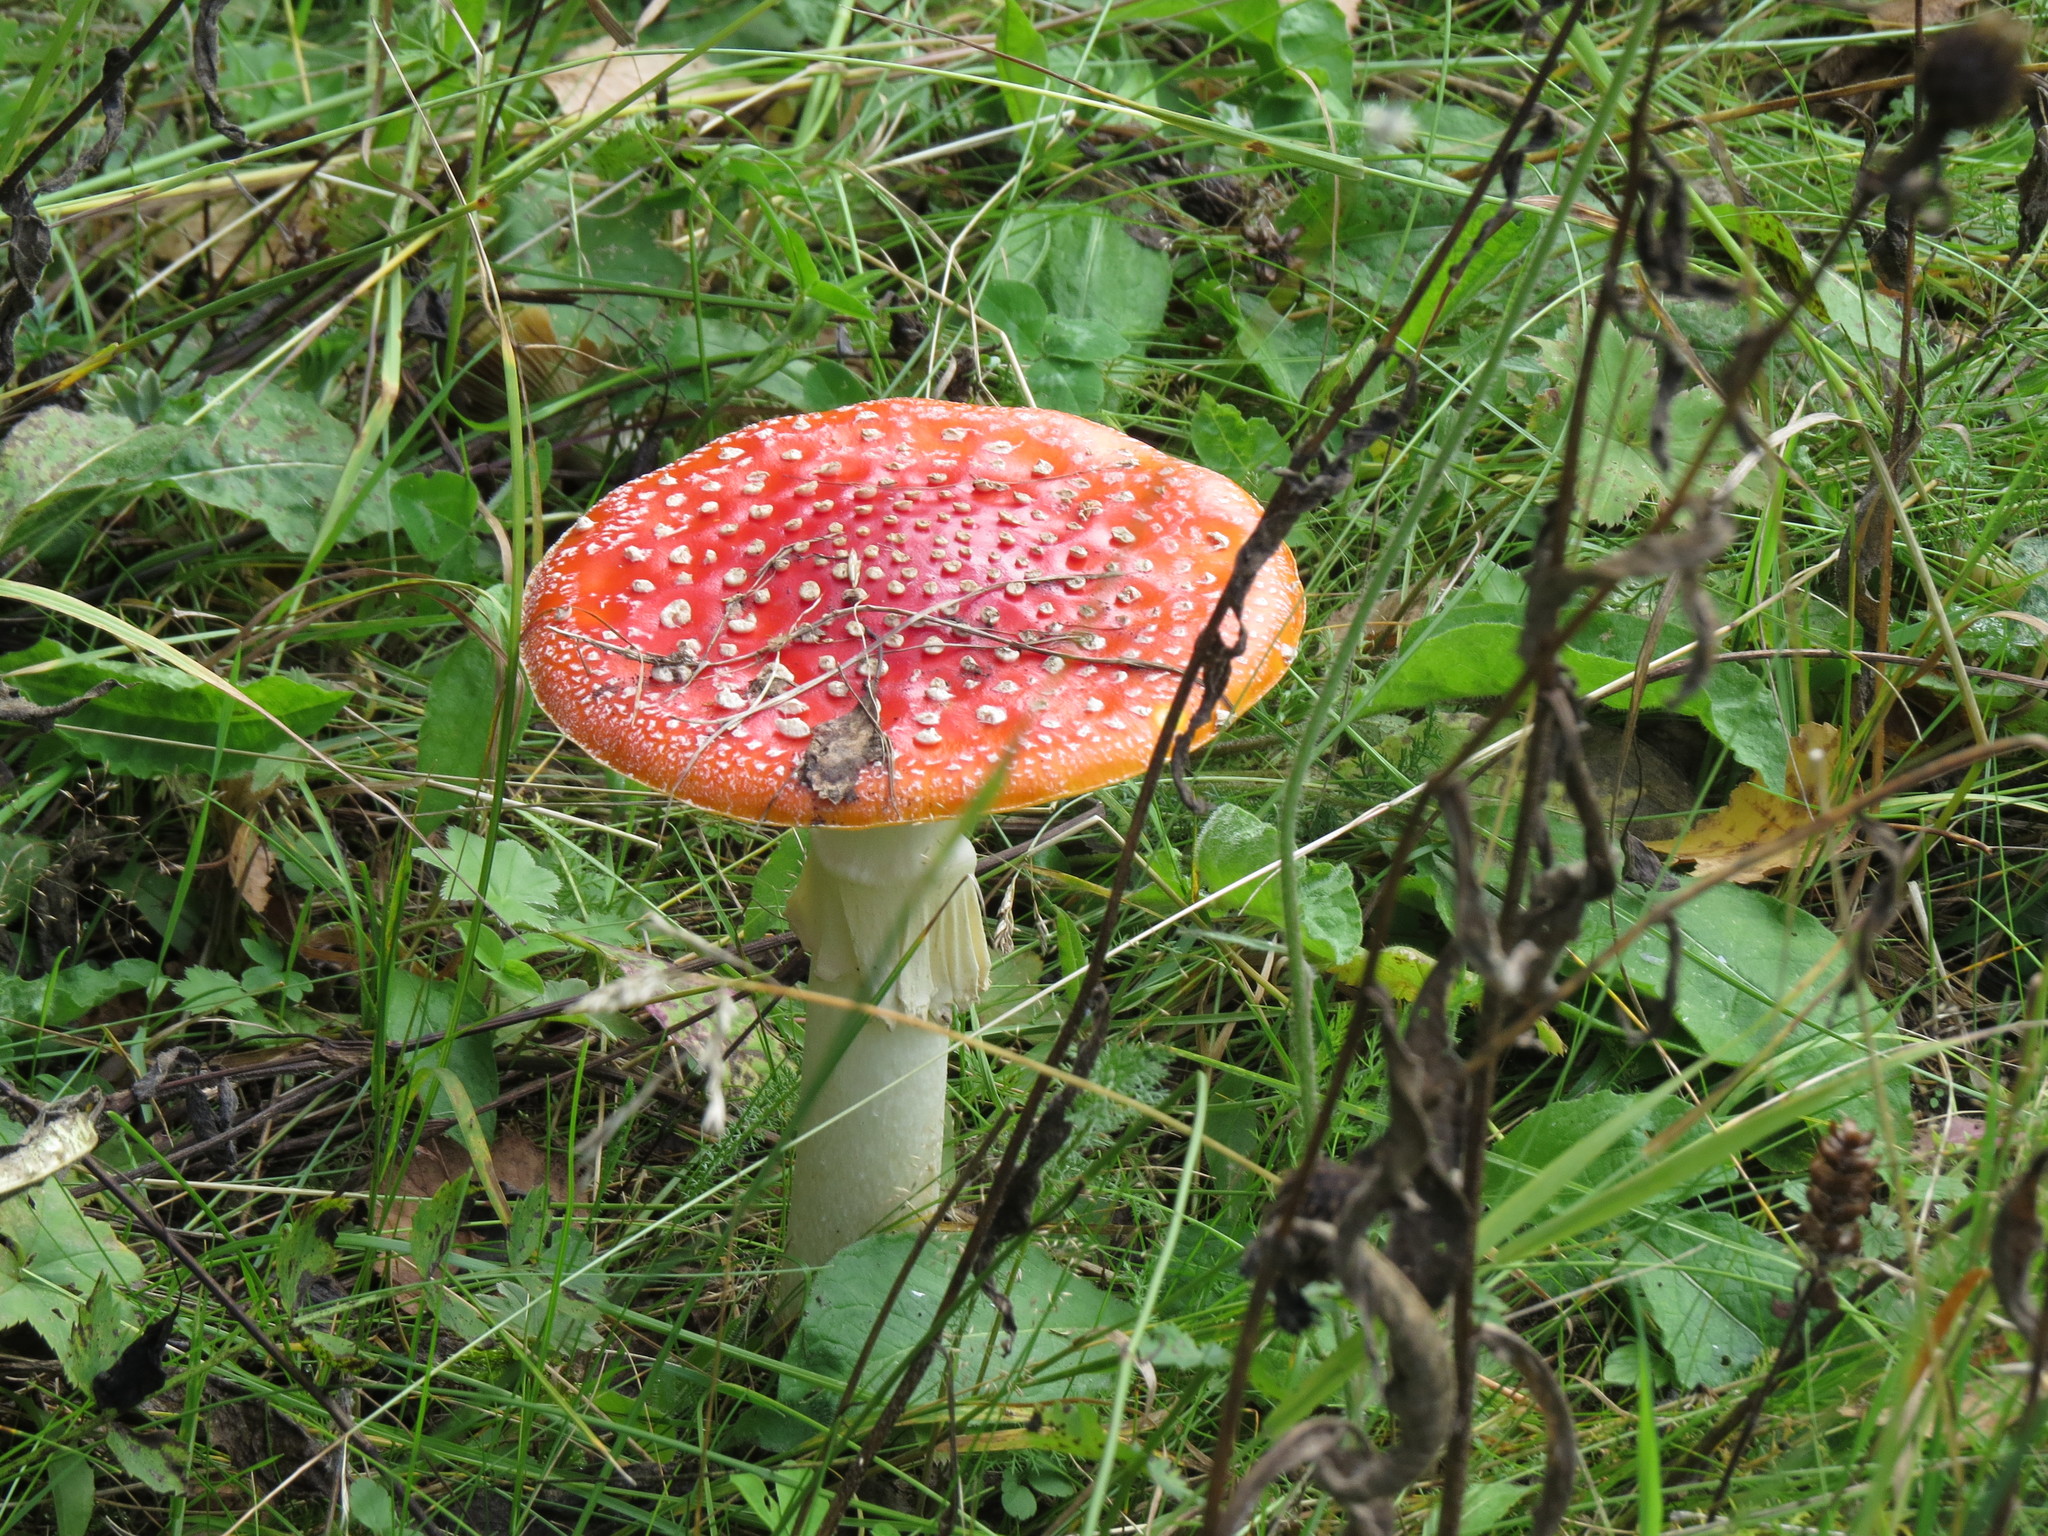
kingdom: Fungi
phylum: Basidiomycota
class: Agaricomycetes
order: Agaricales
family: Amanitaceae
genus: Amanita
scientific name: Amanita muscaria
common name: Fly agaric
